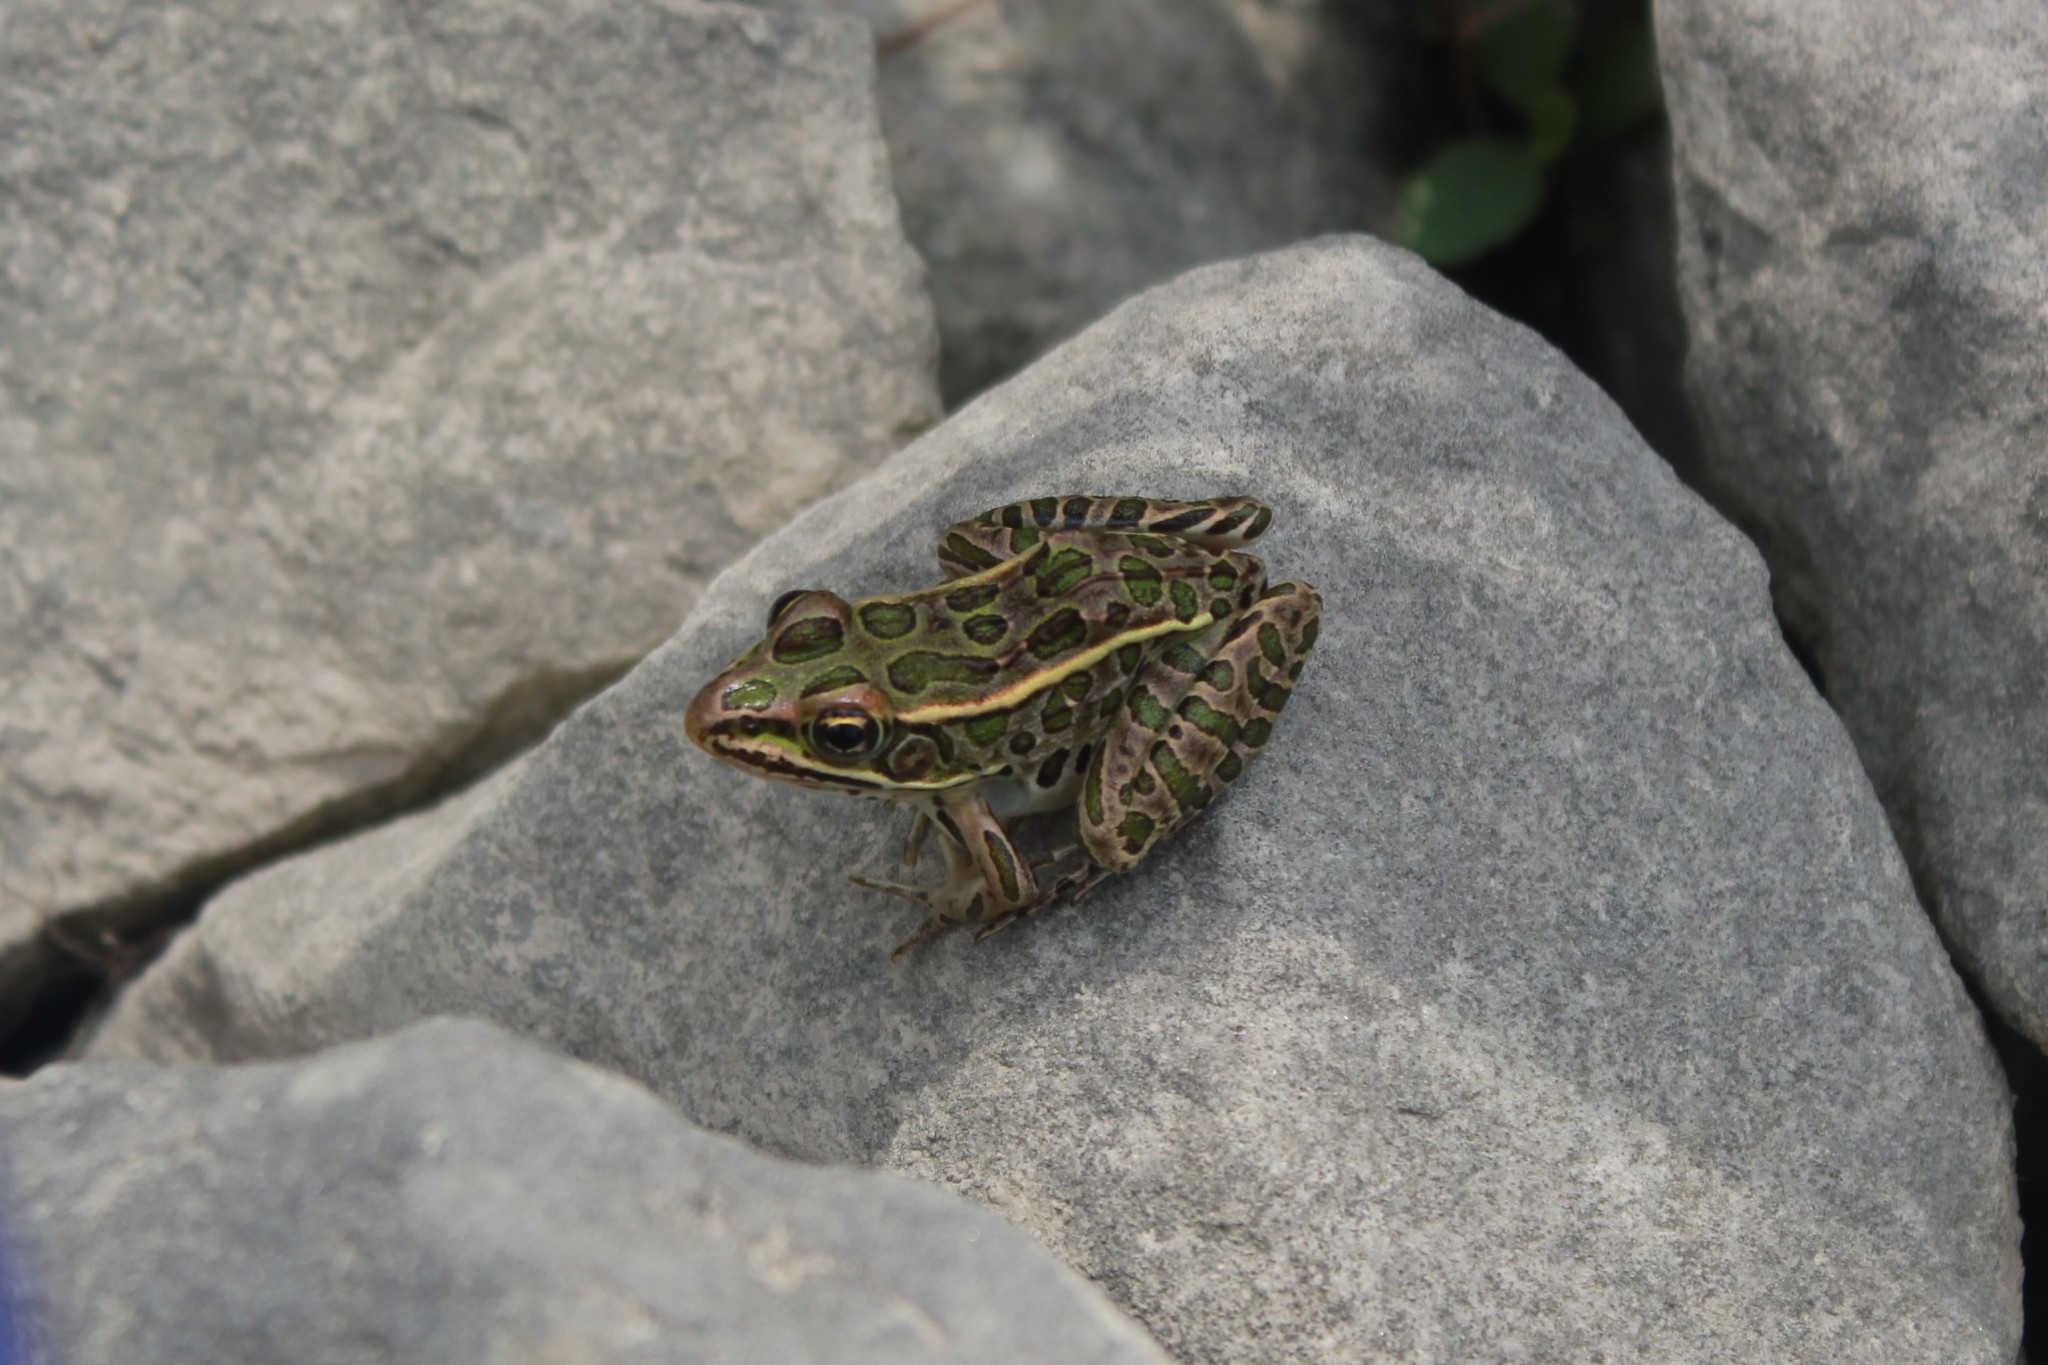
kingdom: Animalia
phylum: Chordata
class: Amphibia
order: Anura
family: Ranidae
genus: Lithobates
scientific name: Lithobates pipiens
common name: Northern leopard frog
